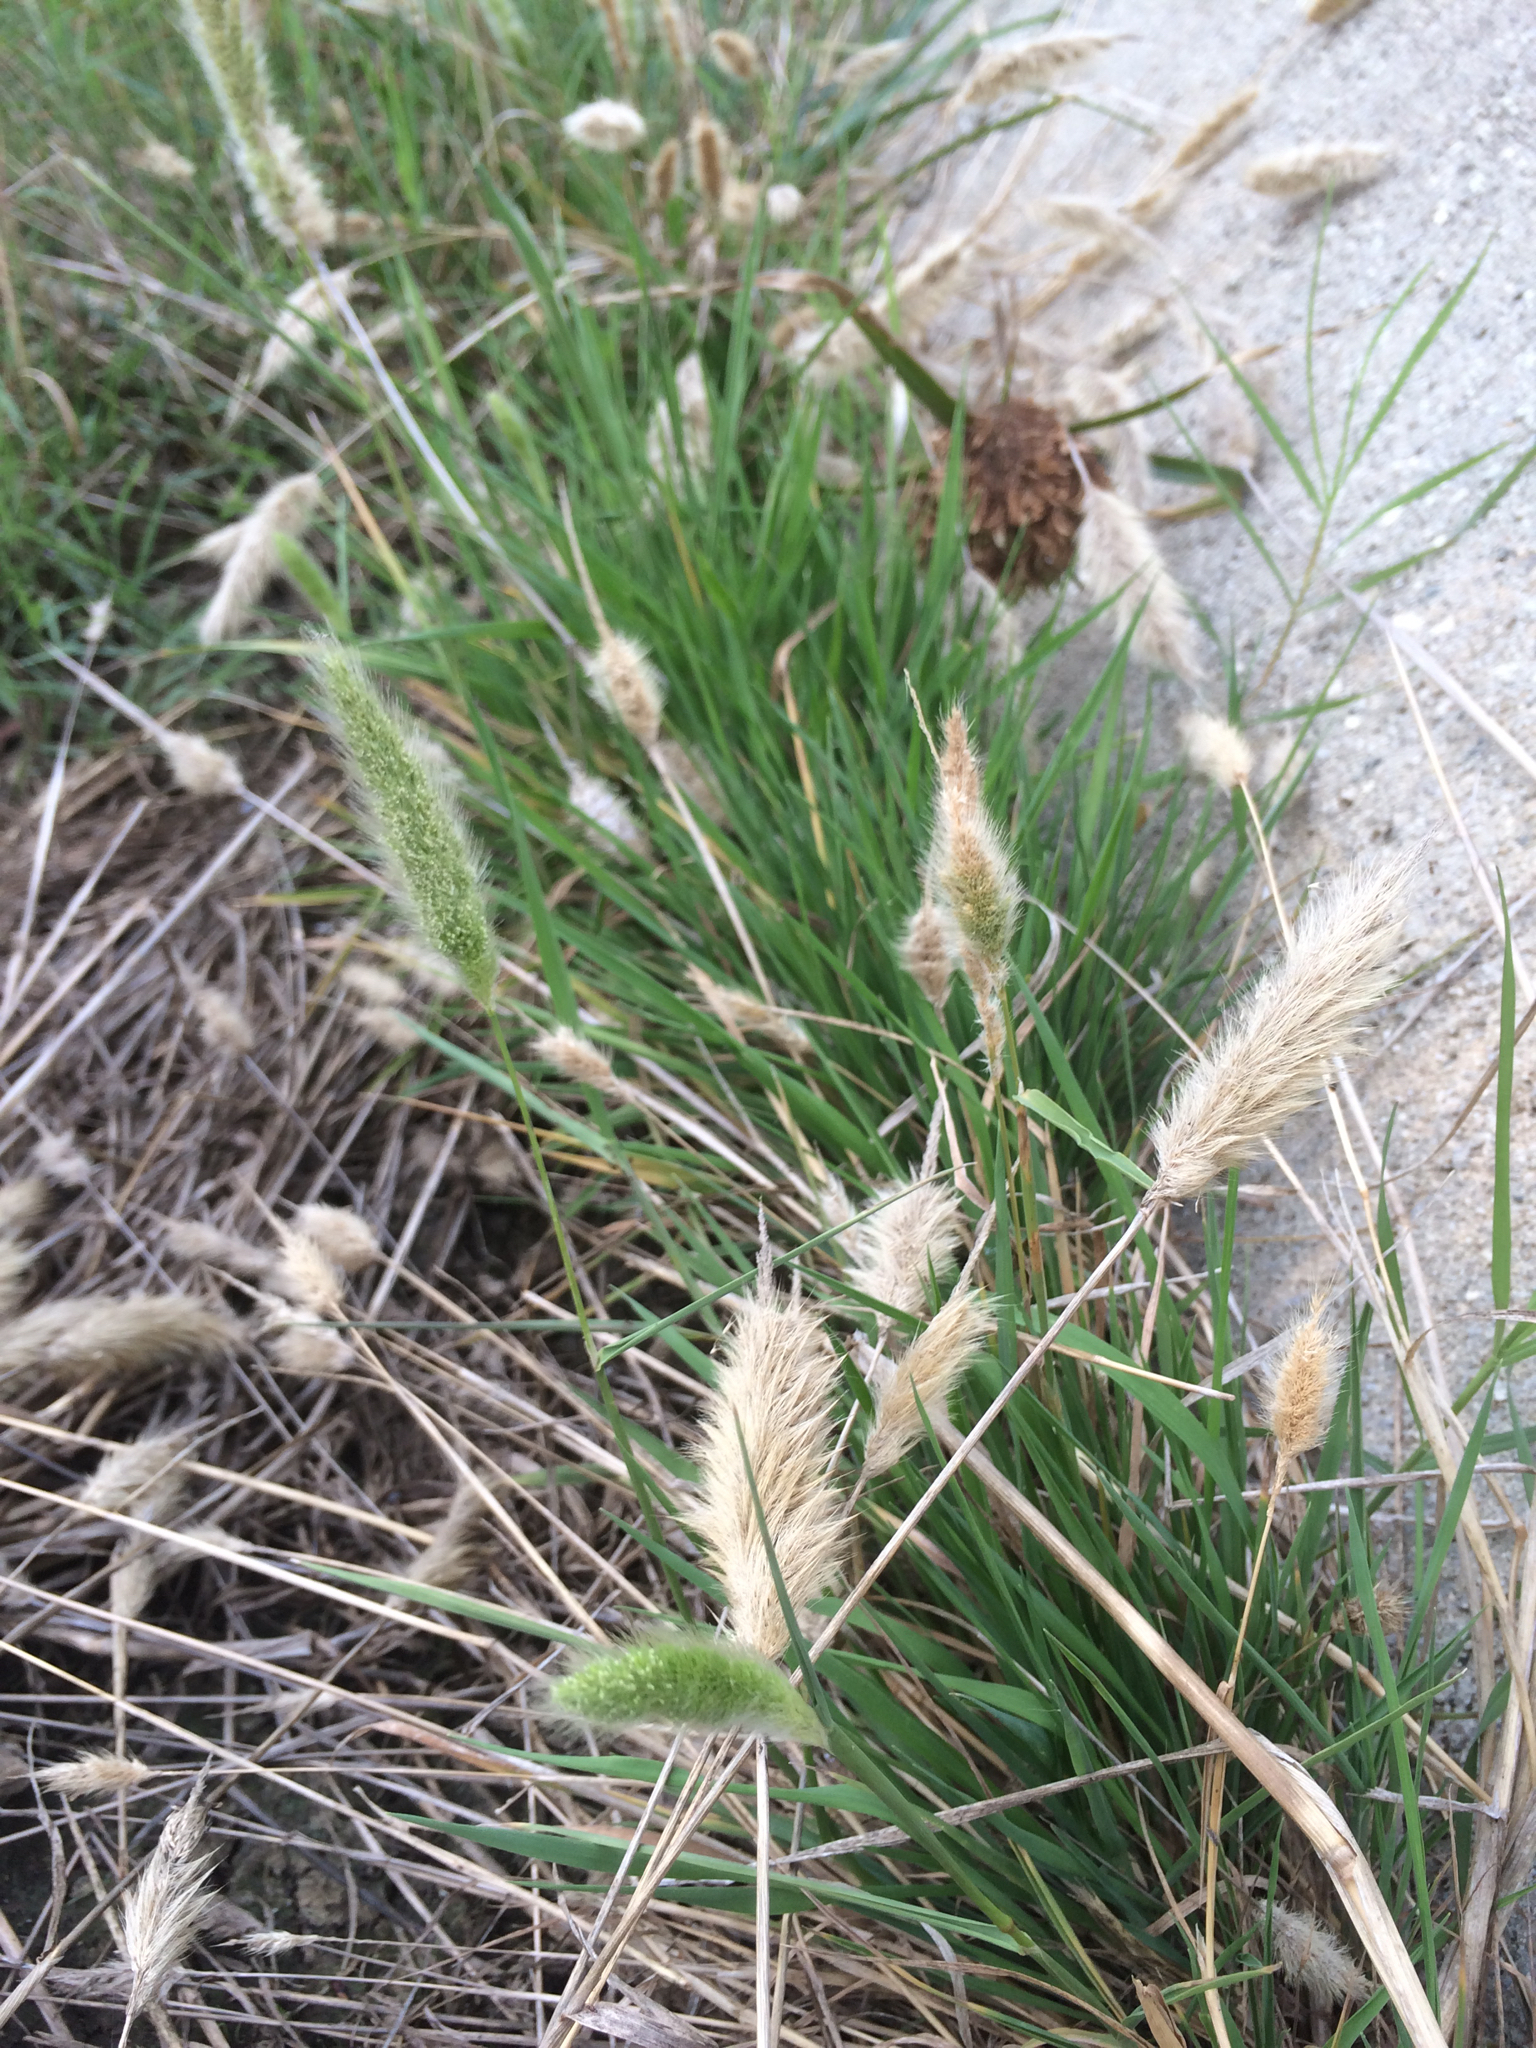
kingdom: Plantae
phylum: Tracheophyta
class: Liliopsida
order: Poales
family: Poaceae
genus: Polypogon
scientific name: Polypogon monspeliensis
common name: Annual rabbitsfoot grass
